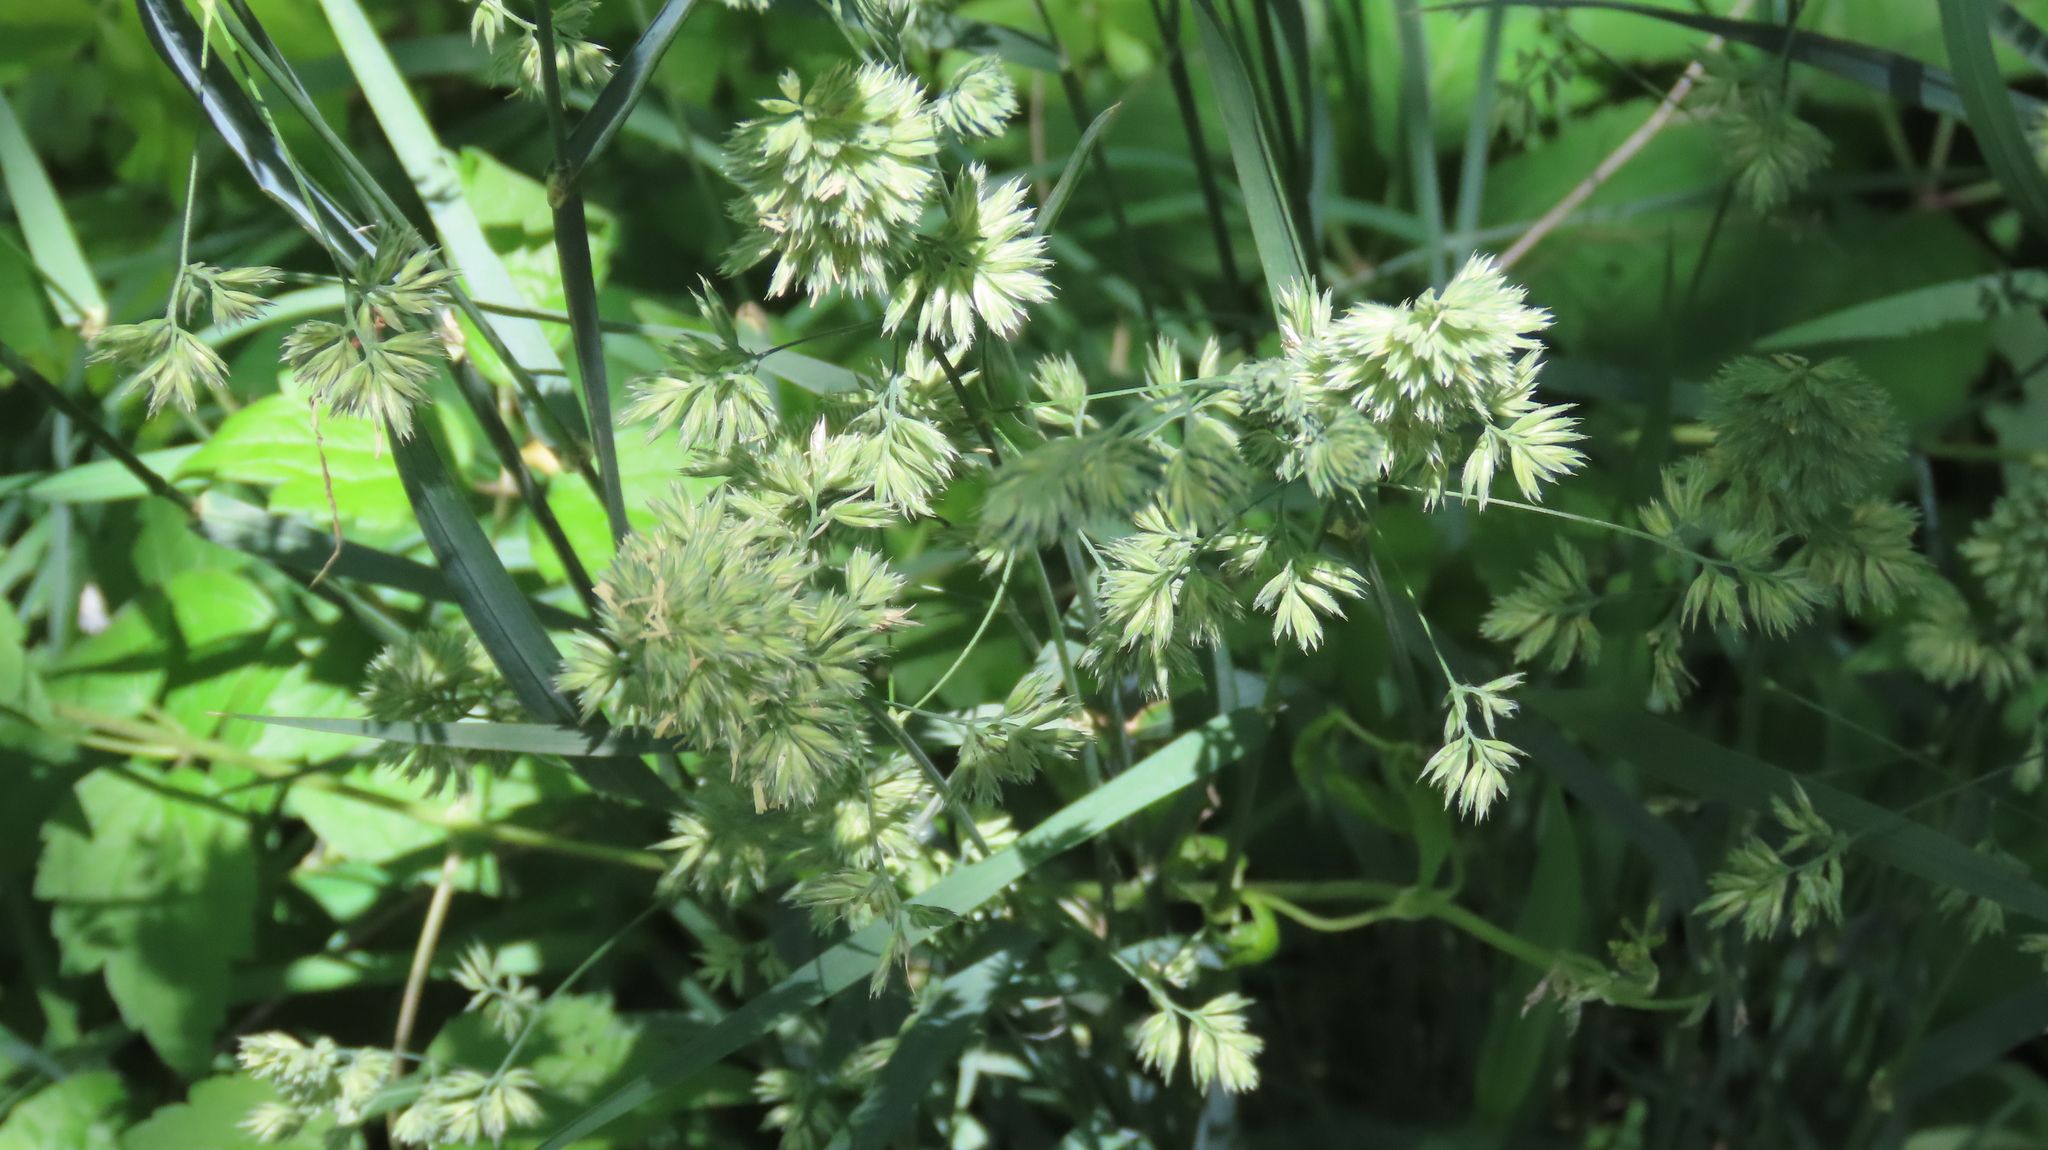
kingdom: Plantae
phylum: Tracheophyta
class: Liliopsida
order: Poales
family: Poaceae
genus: Dactylis
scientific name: Dactylis glomerata
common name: Orchardgrass
